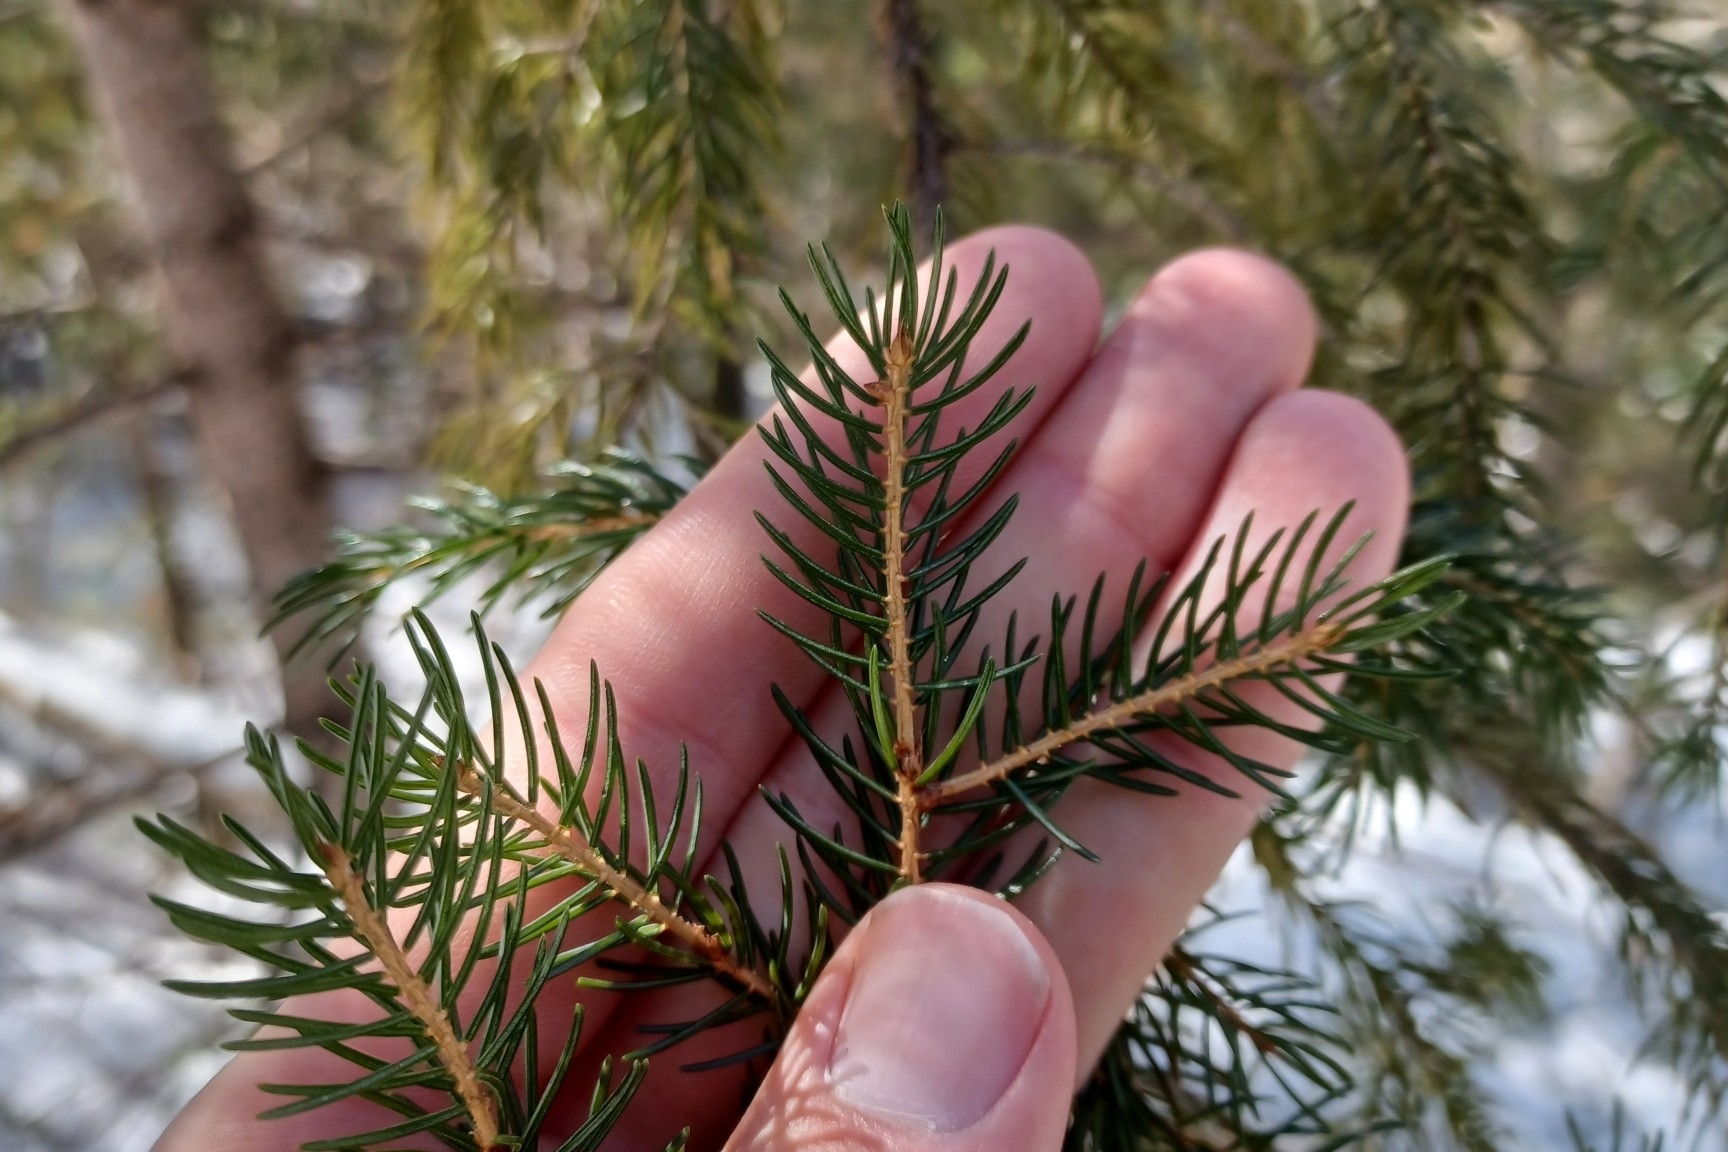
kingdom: Plantae
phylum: Tracheophyta
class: Pinopsida
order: Pinales
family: Pinaceae
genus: Picea
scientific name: Picea rubens
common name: Red spruce
